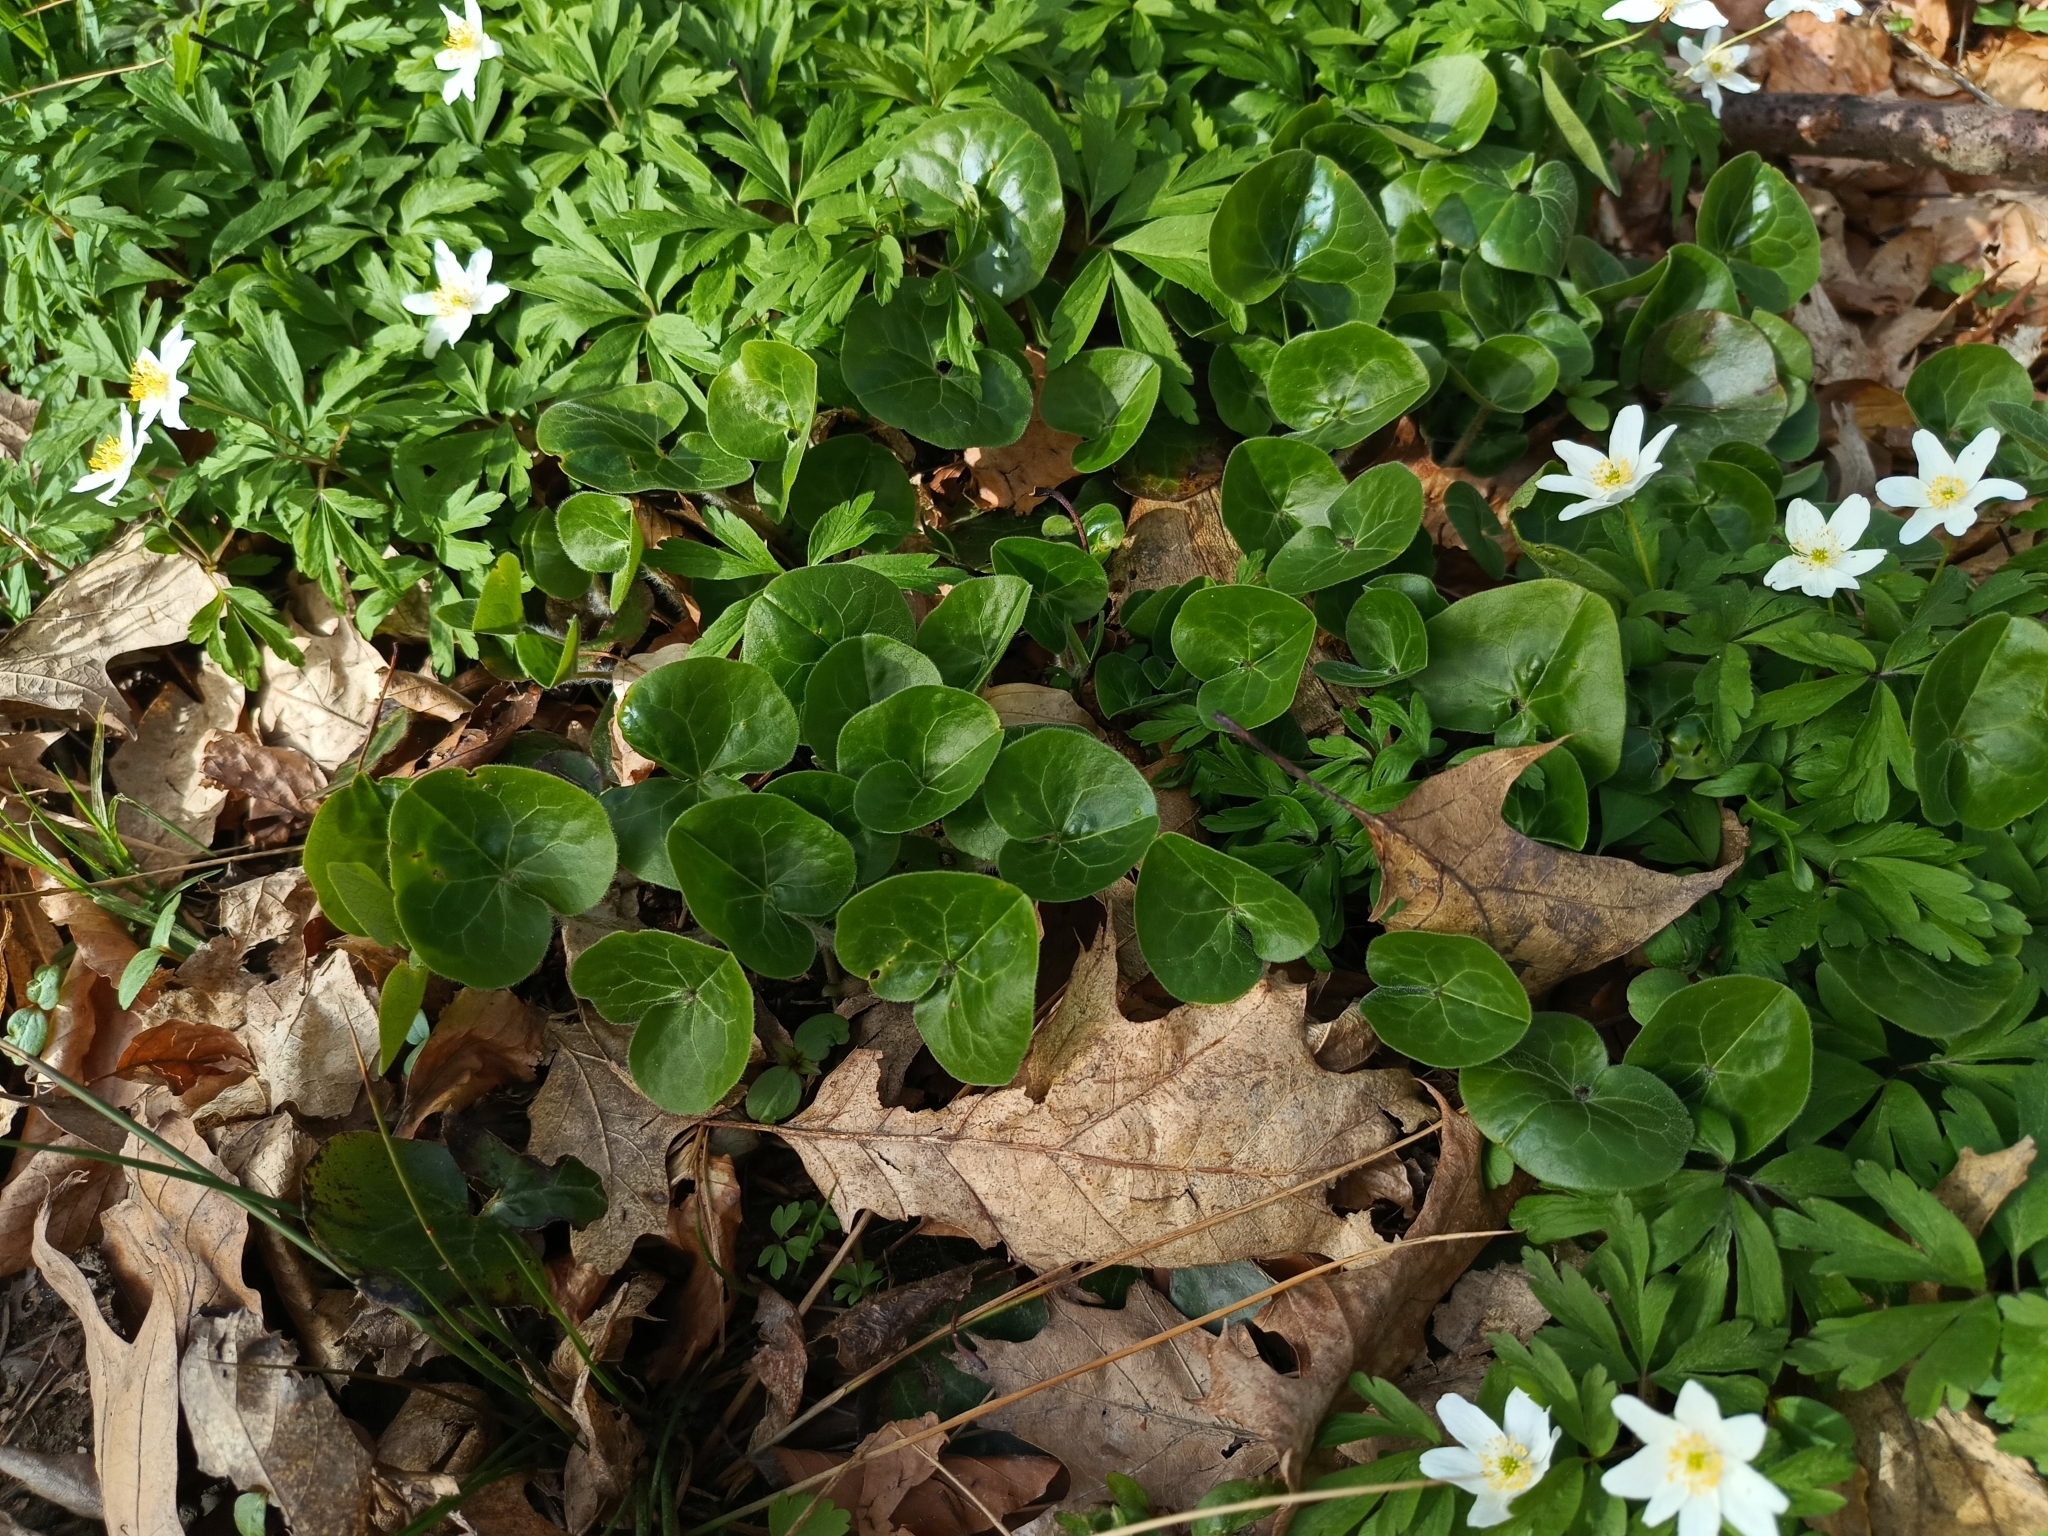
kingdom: Plantae
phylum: Tracheophyta
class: Magnoliopsida
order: Piperales
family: Aristolochiaceae
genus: Asarum
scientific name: Asarum europaeum
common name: Asarabacca
